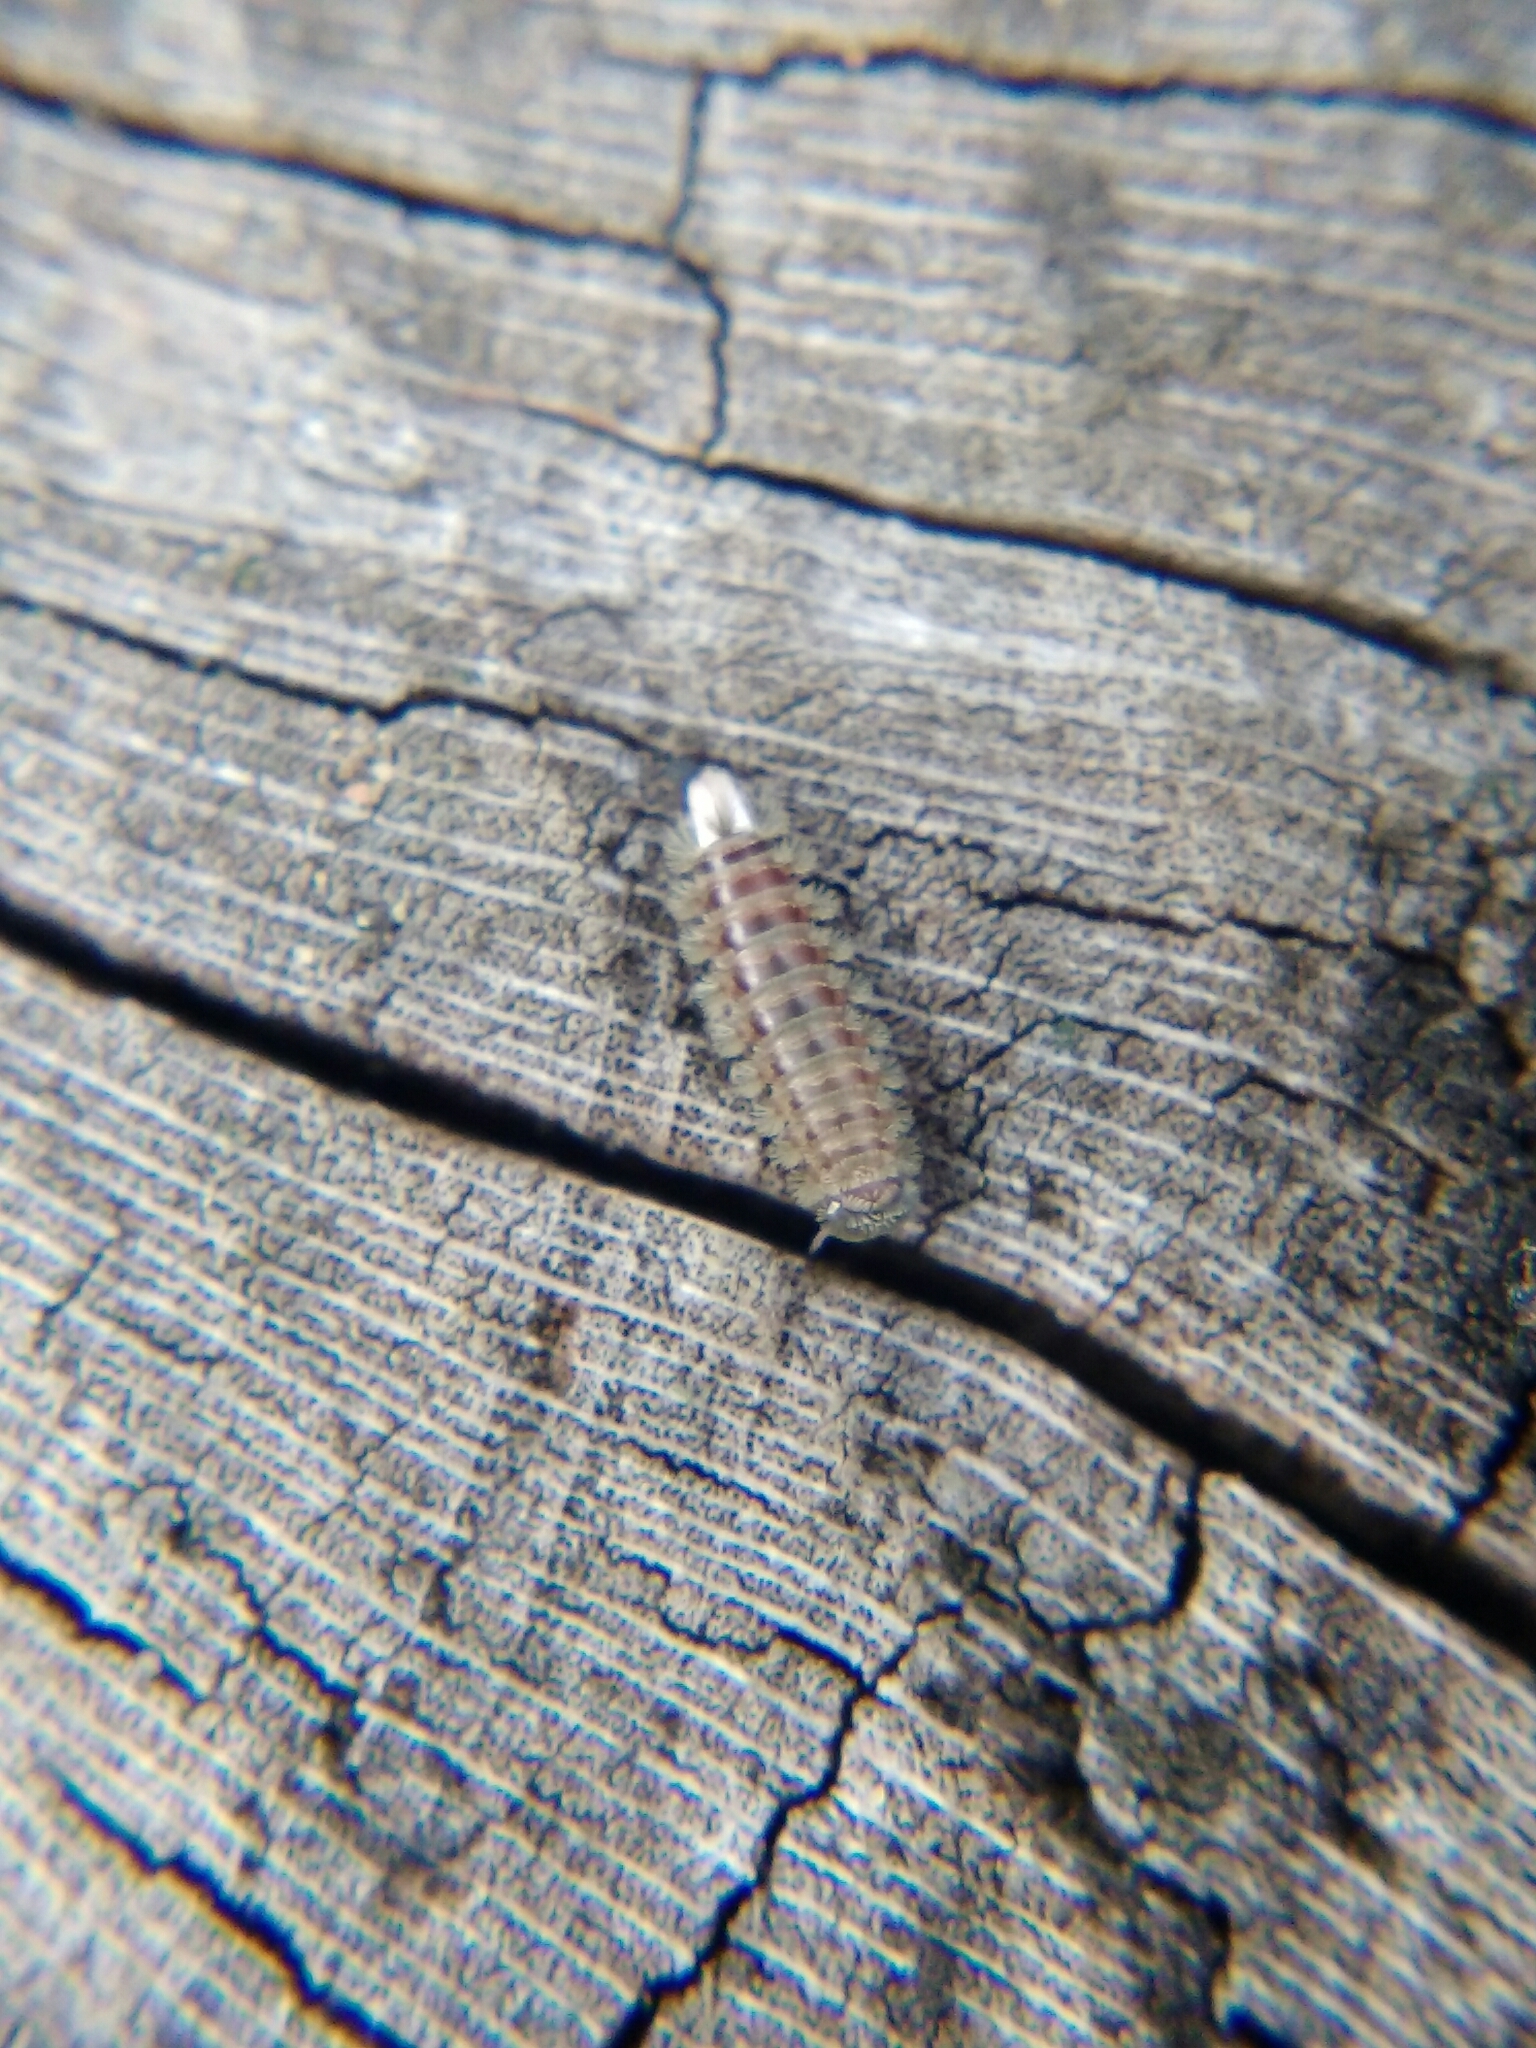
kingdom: Animalia
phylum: Arthropoda
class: Diplopoda
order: Polyxenida
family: Polyxenidae
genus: Polyxenus
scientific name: Polyxenus lagurus
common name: Bristly millipede
